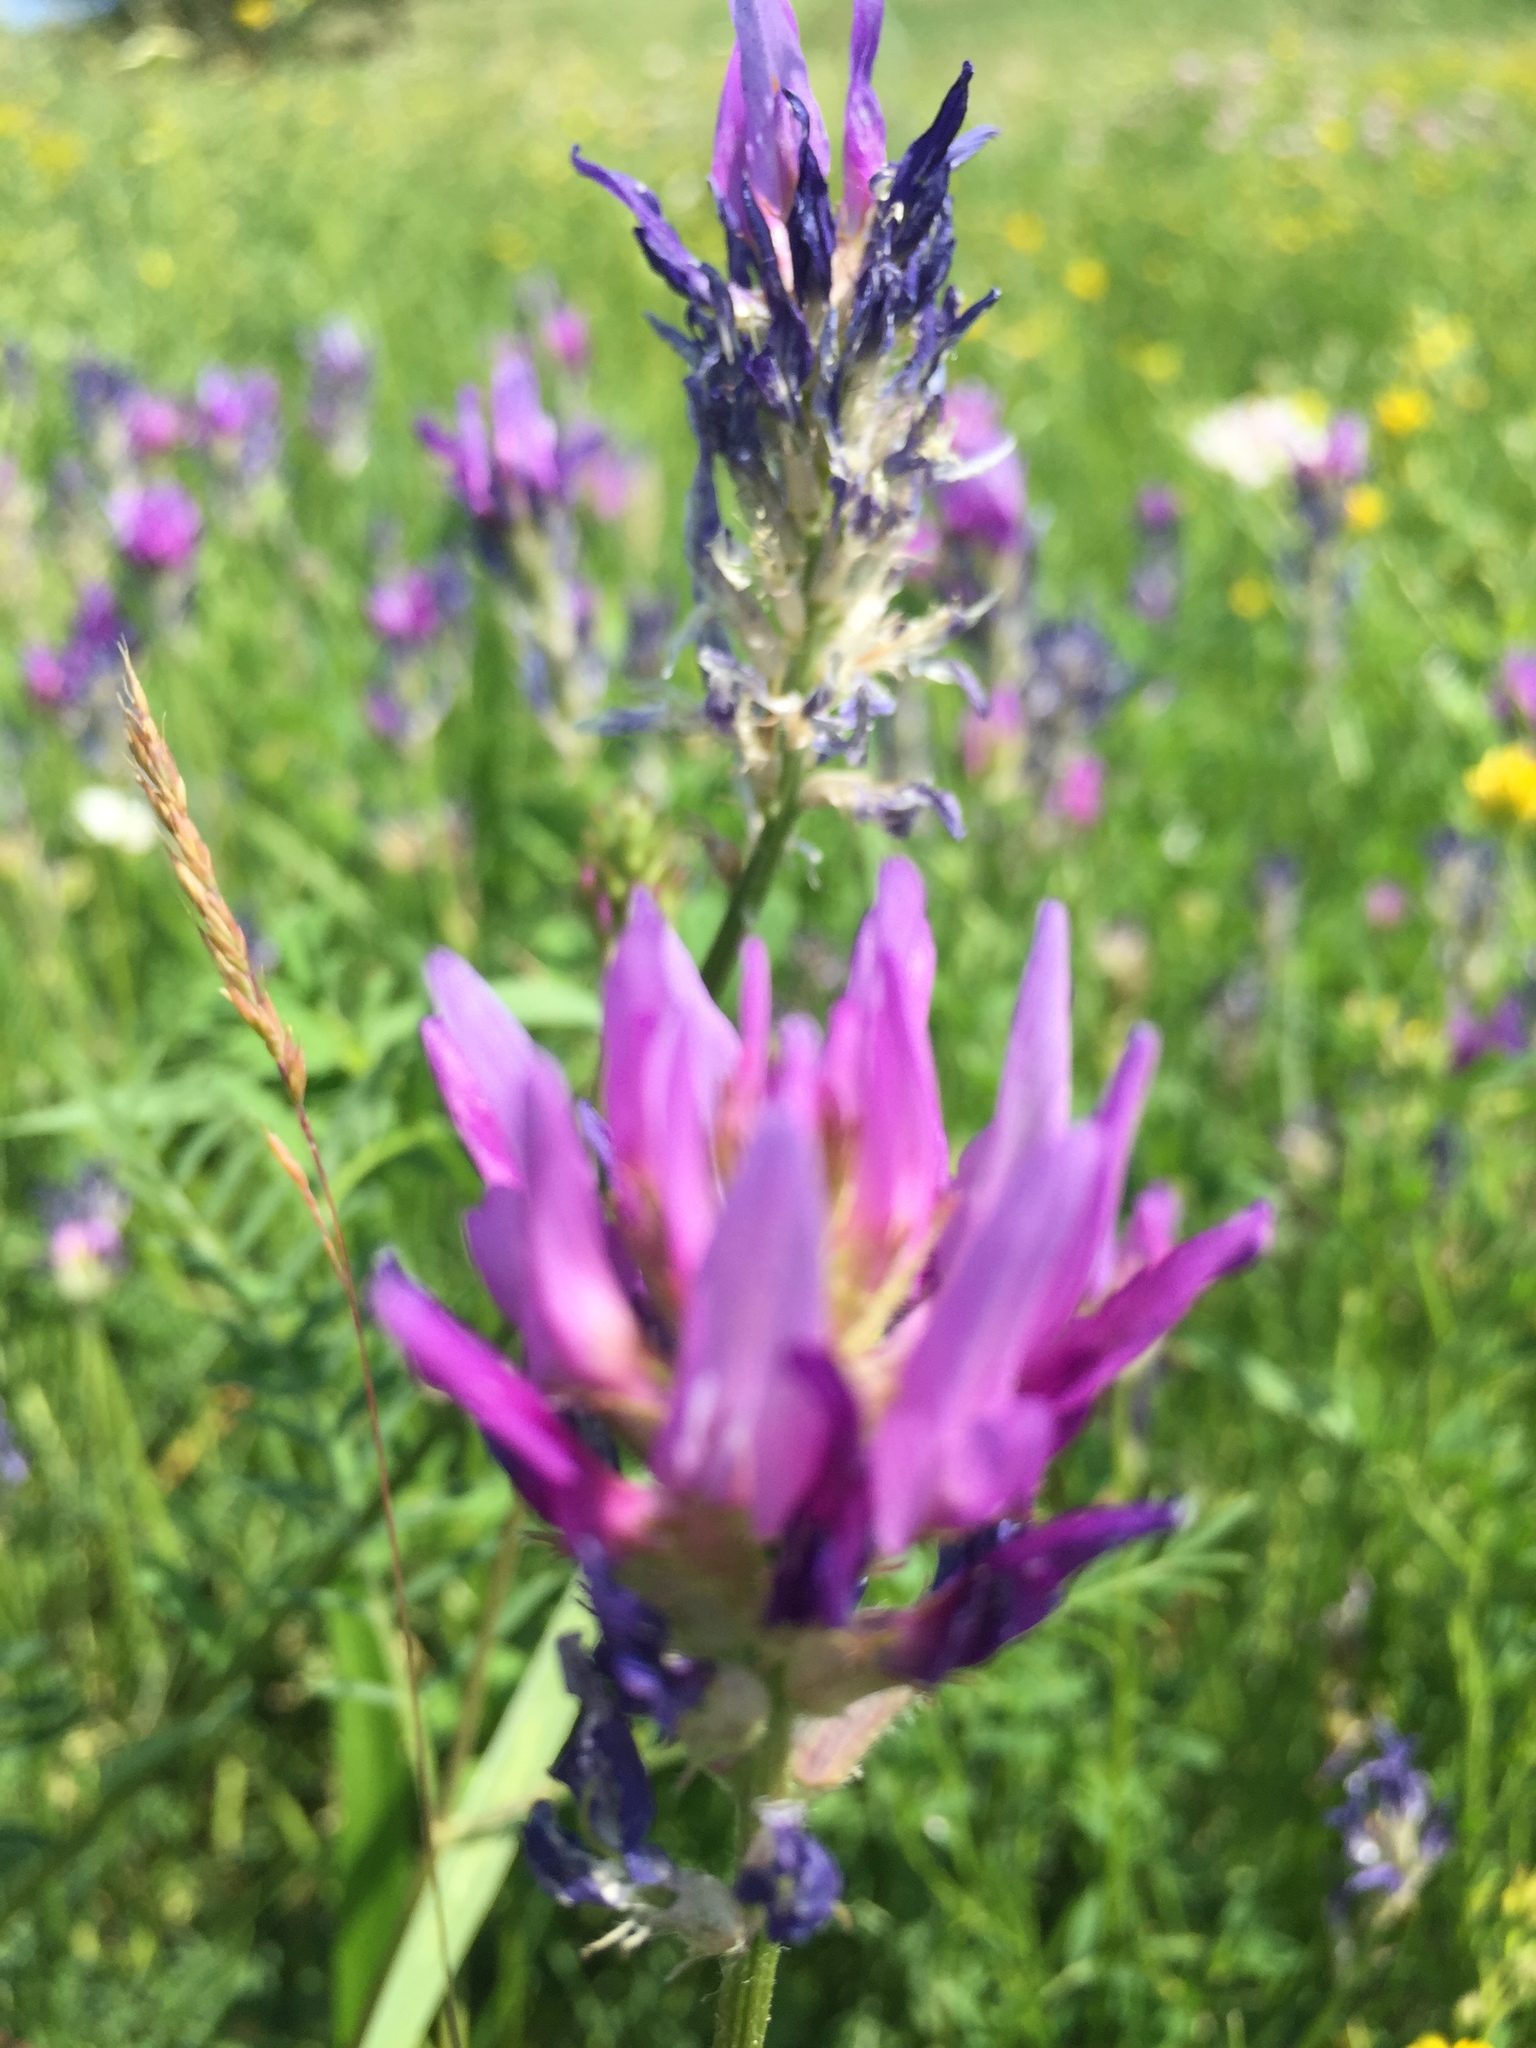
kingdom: Plantae
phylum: Tracheophyta
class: Magnoliopsida
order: Fabales
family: Fabaceae
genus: Astragalus
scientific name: Astragalus onobrychis
